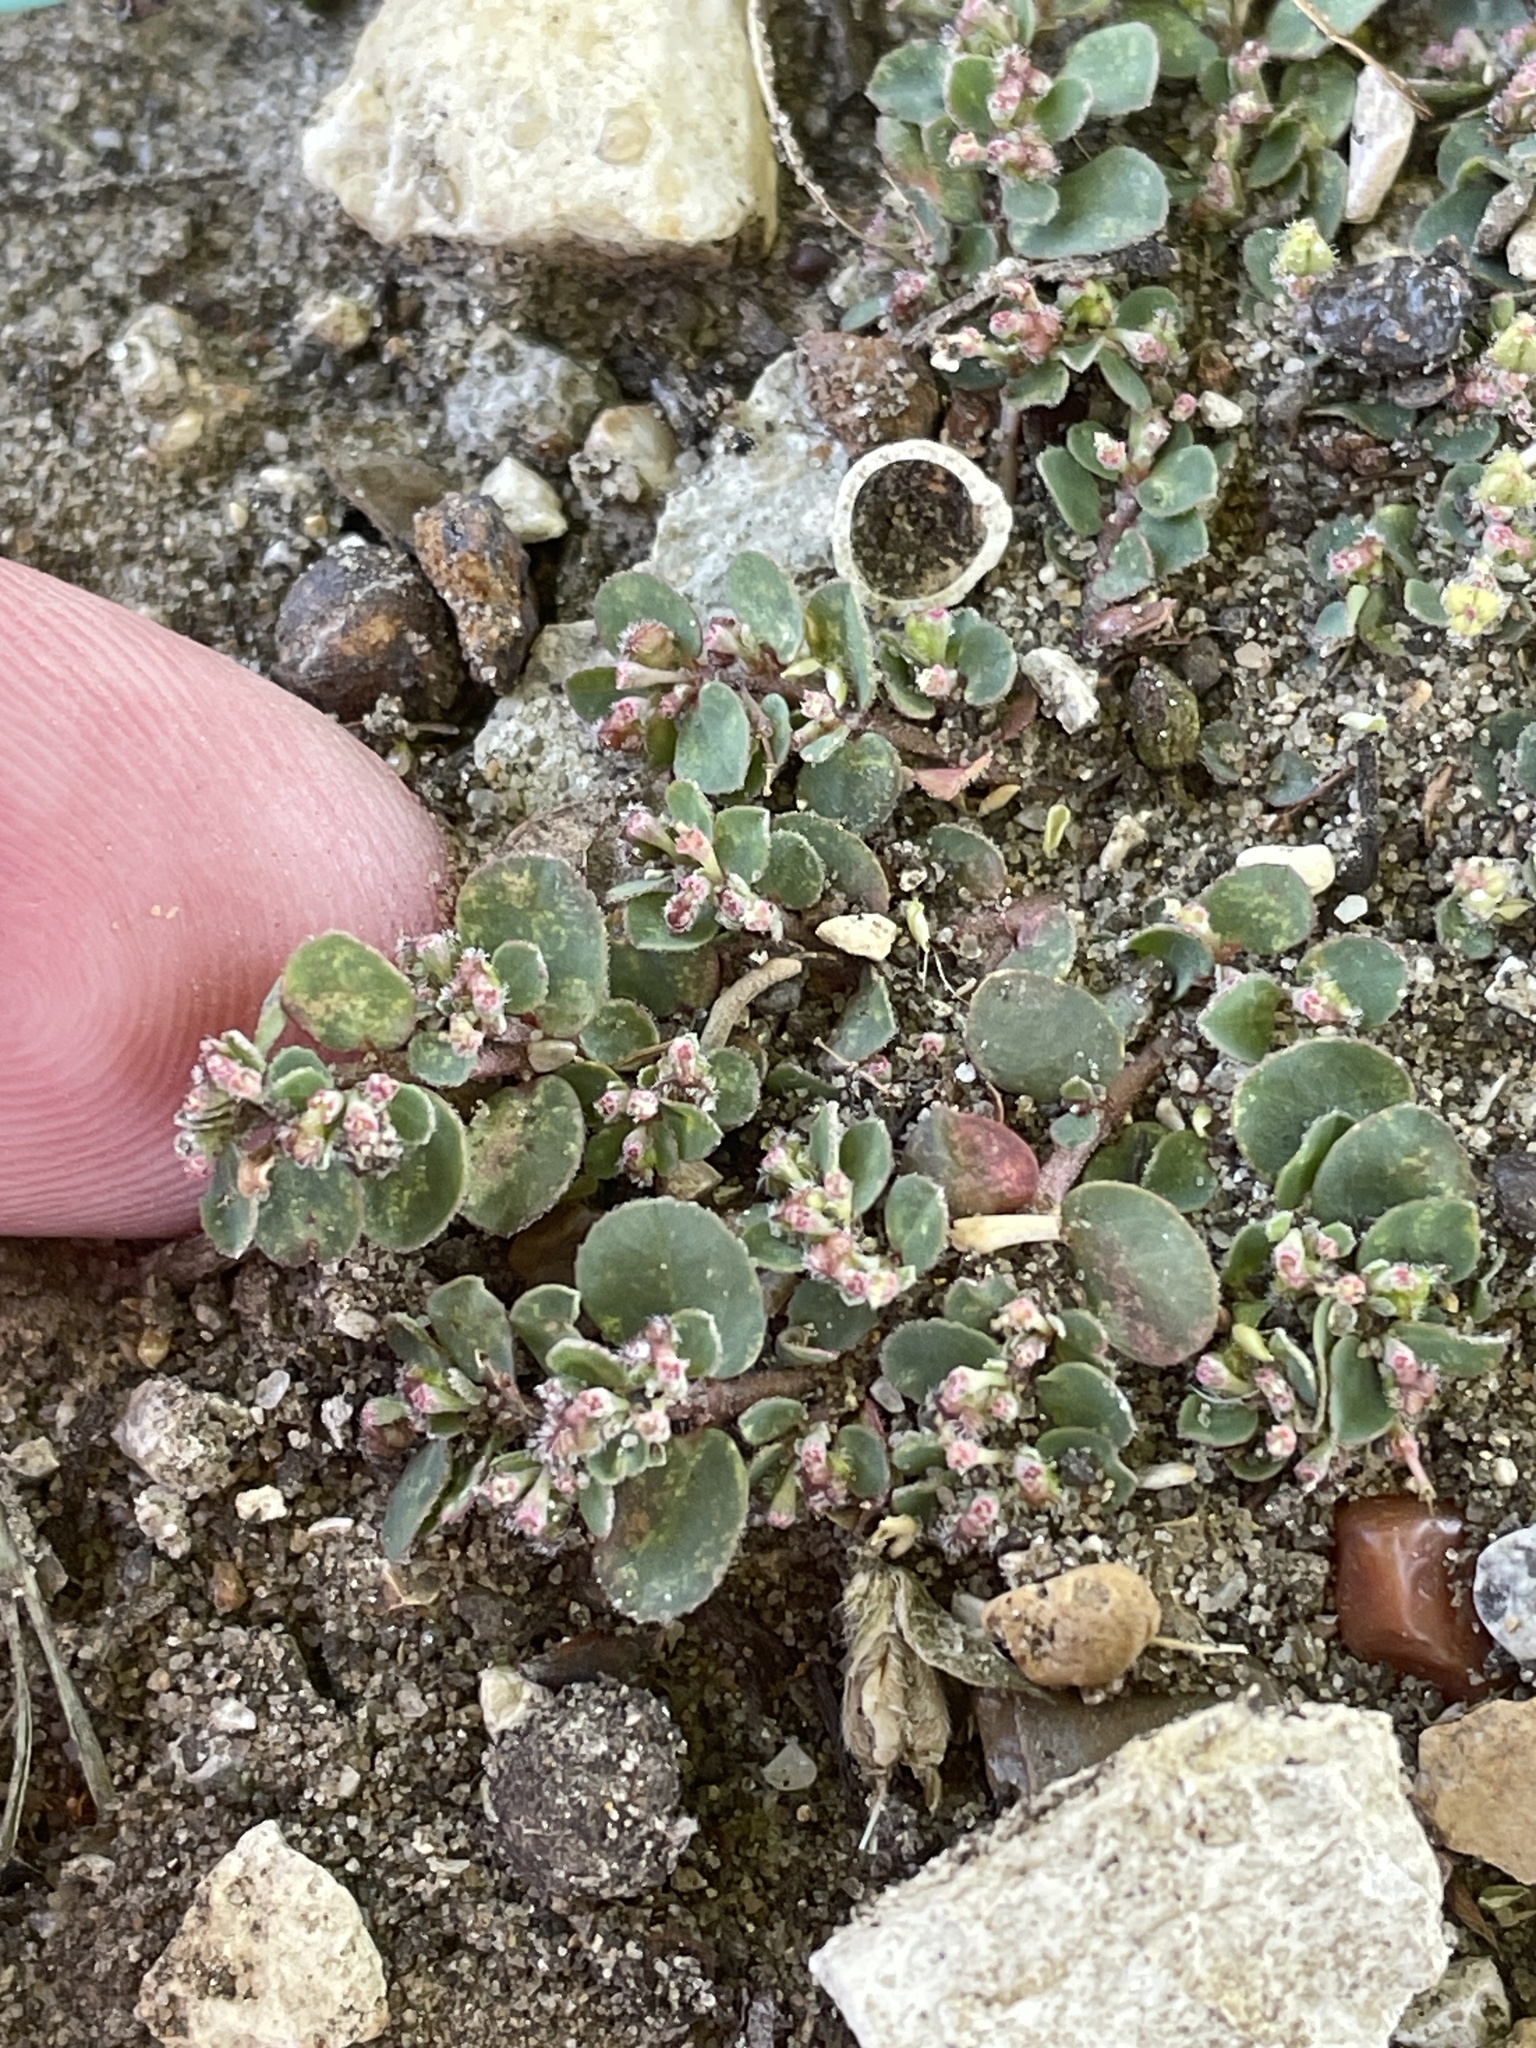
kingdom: Plantae
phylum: Tracheophyta
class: Magnoliopsida
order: Malpighiales
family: Euphorbiaceae
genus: Euphorbia
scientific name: Euphorbia prostrata
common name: Prostrate sandmat
